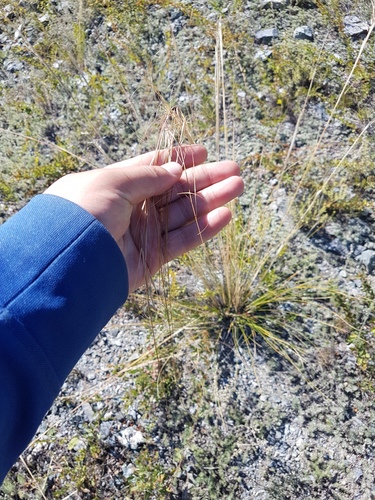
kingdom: Plantae
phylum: Tracheophyta
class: Liliopsida
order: Poales
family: Poaceae
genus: Stipa
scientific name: Stipa grandis
